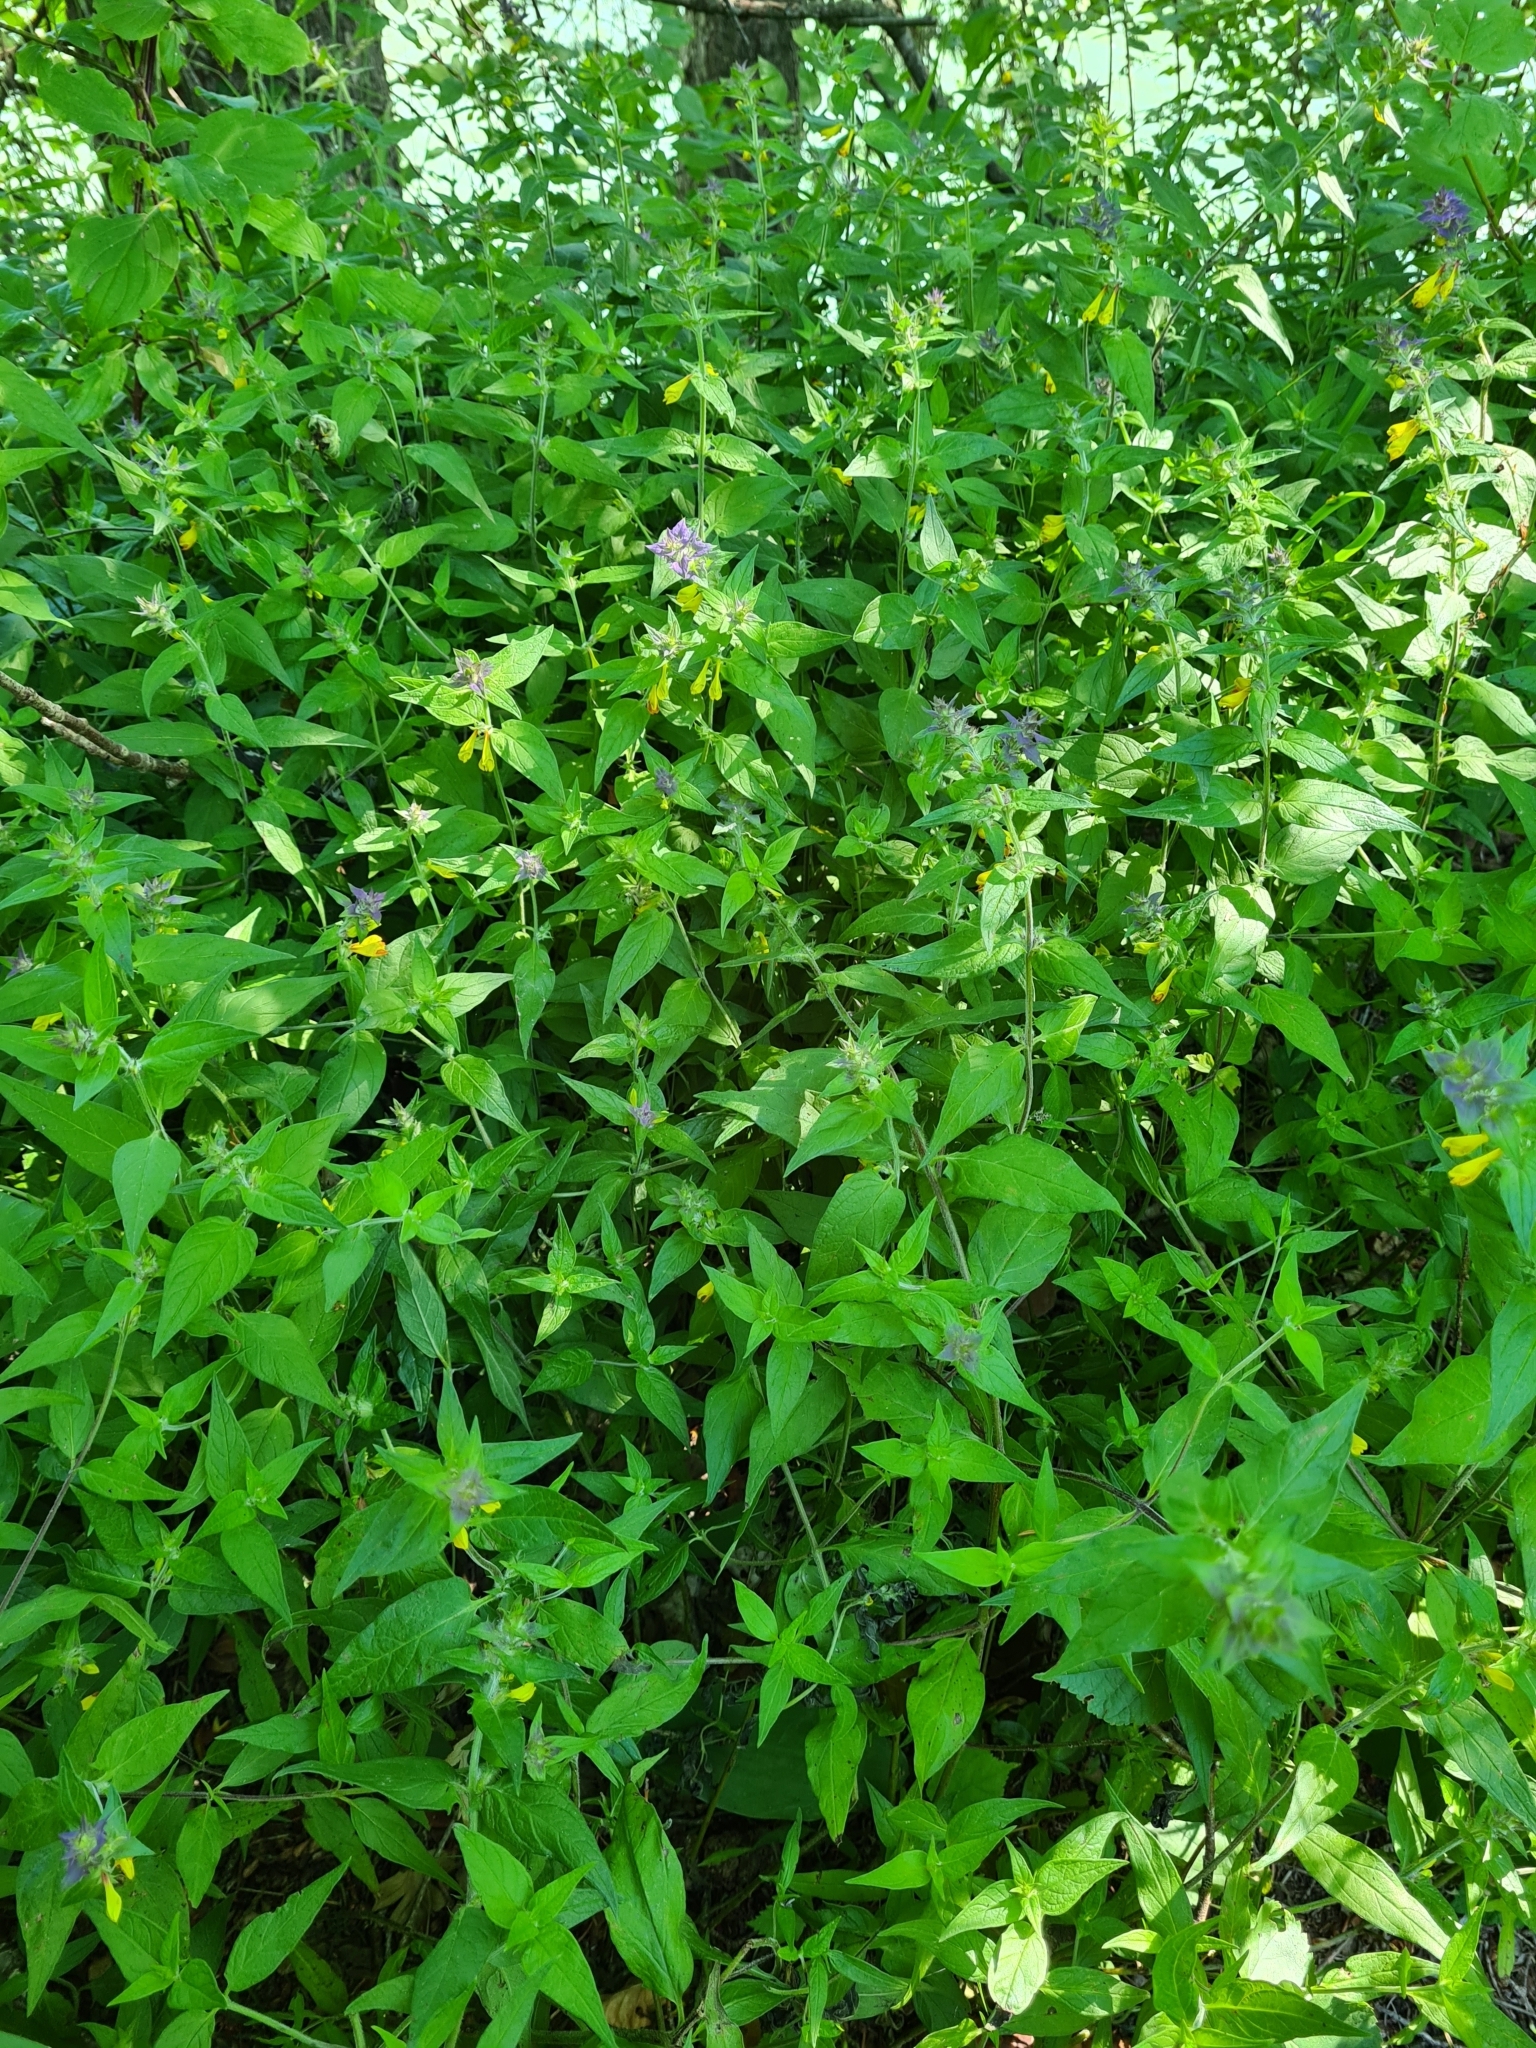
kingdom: Plantae
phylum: Tracheophyta
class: Magnoliopsida
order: Lamiales
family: Orobanchaceae
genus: Melampyrum
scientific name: Melampyrum nemorosum
